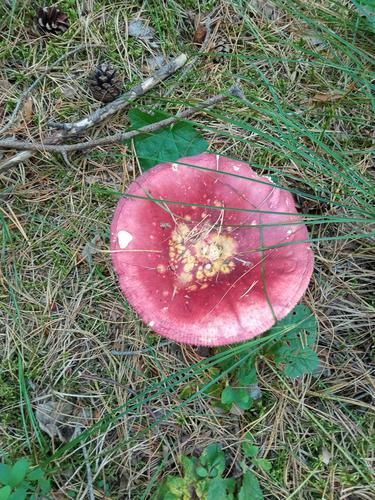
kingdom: Fungi
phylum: Basidiomycota
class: Agaricomycetes
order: Russulales
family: Russulaceae
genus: Russula
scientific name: Russula
